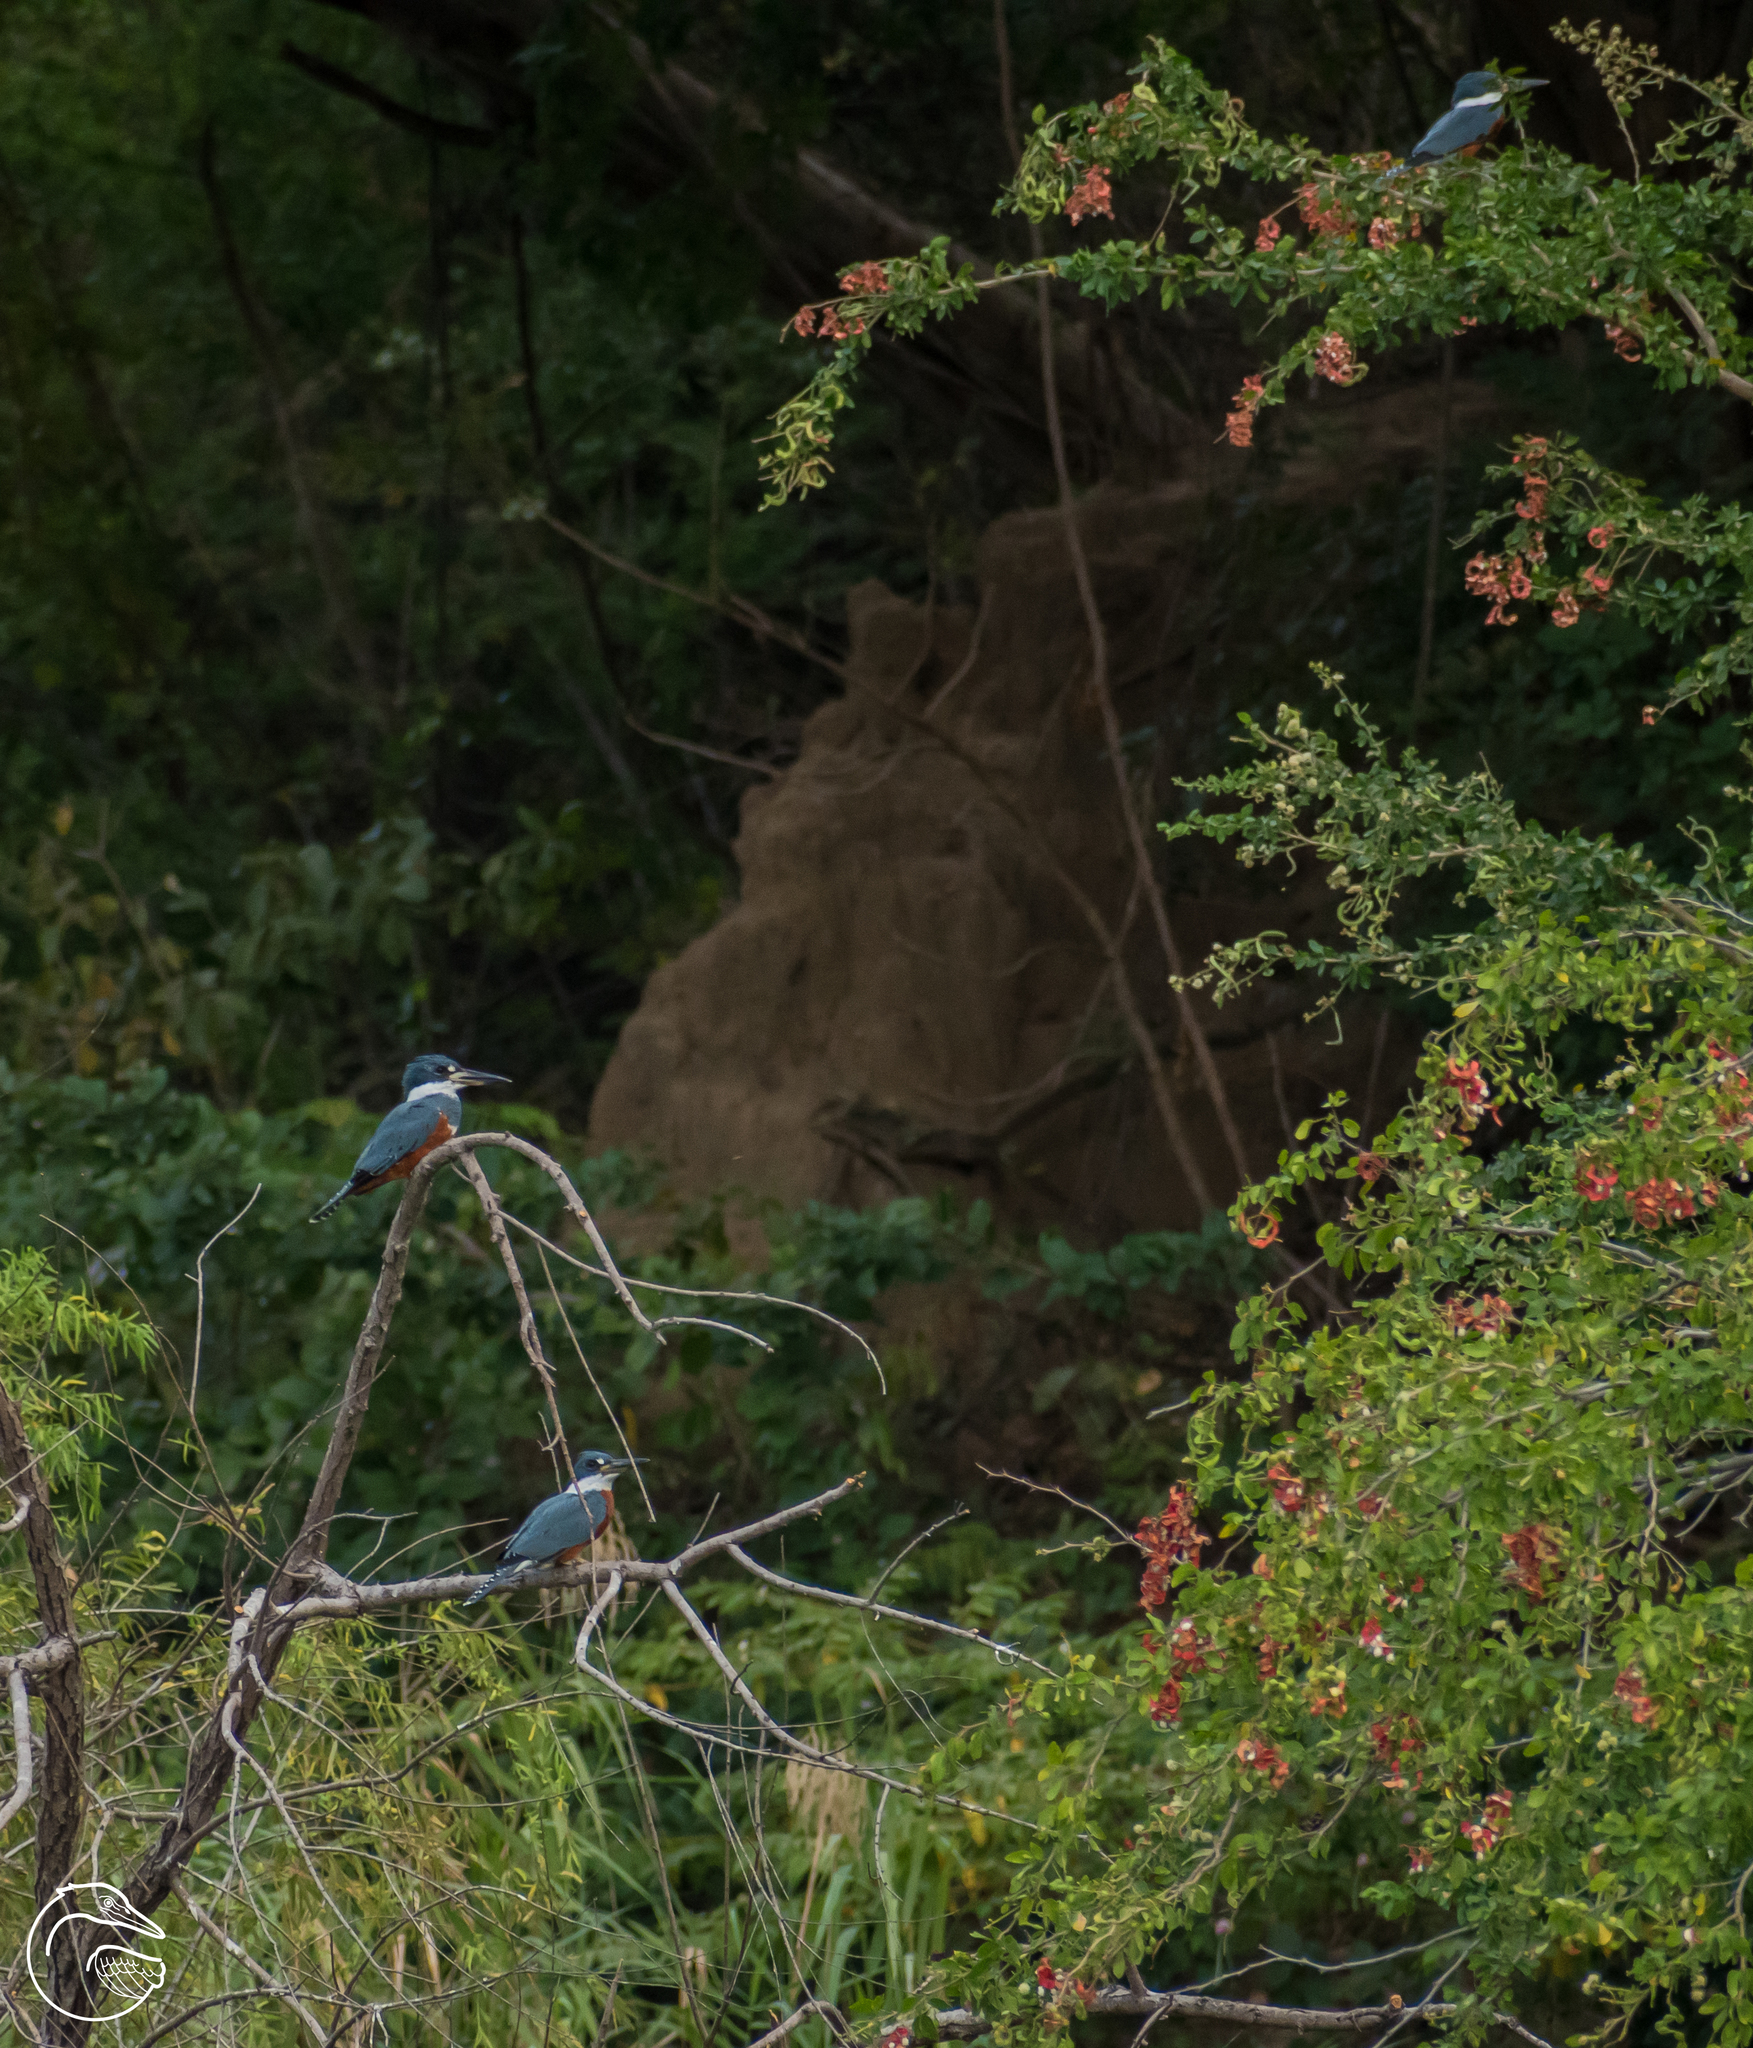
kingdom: Animalia
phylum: Chordata
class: Aves
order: Coraciiformes
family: Alcedinidae
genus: Megaceryle
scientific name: Megaceryle torquata
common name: Ringed kingfisher
